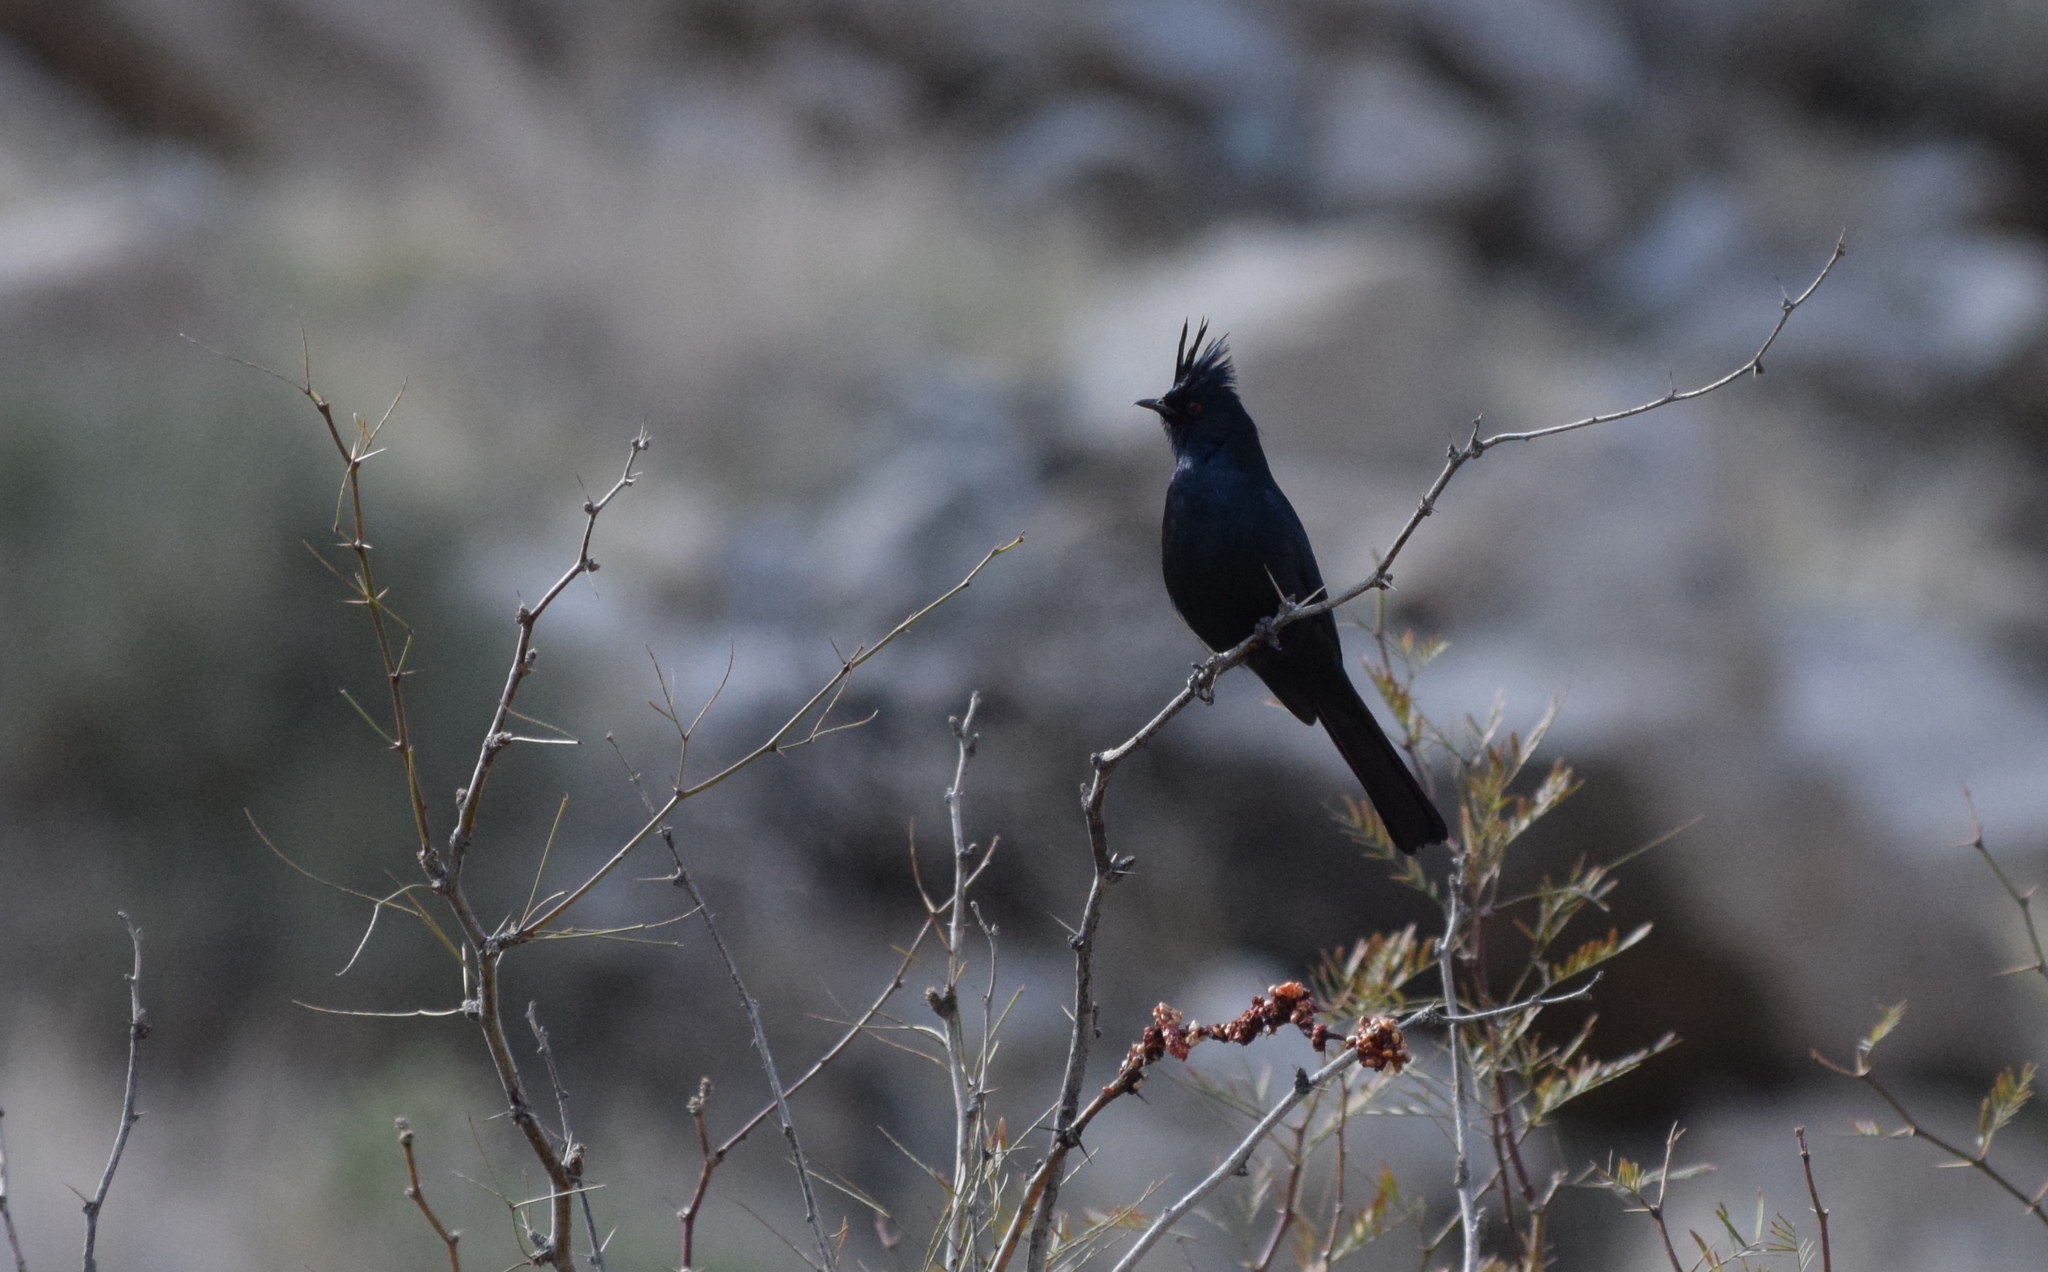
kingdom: Animalia
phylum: Chordata
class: Aves
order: Passeriformes
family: Ptilogonatidae
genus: Phainopepla
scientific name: Phainopepla nitens
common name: Phainopepla
